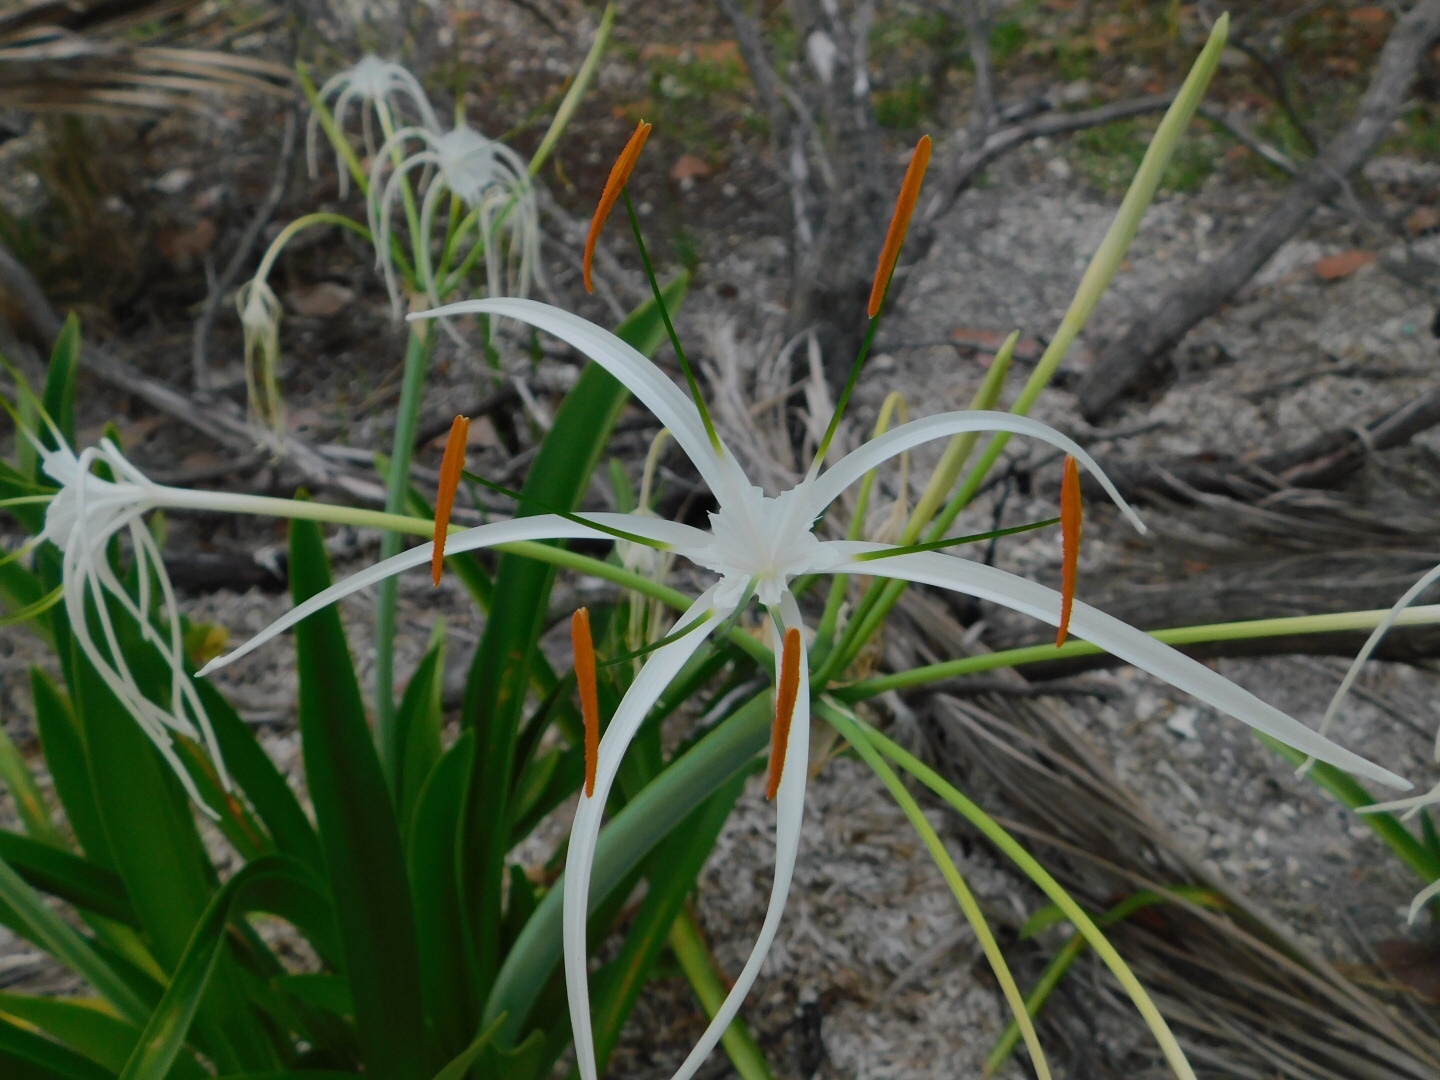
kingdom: Plantae
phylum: Tracheophyta
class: Liliopsida
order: Asparagales
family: Amaryllidaceae
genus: Hymenocallis
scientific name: Hymenocallis latifolia
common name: Cayman islands spider-lily
